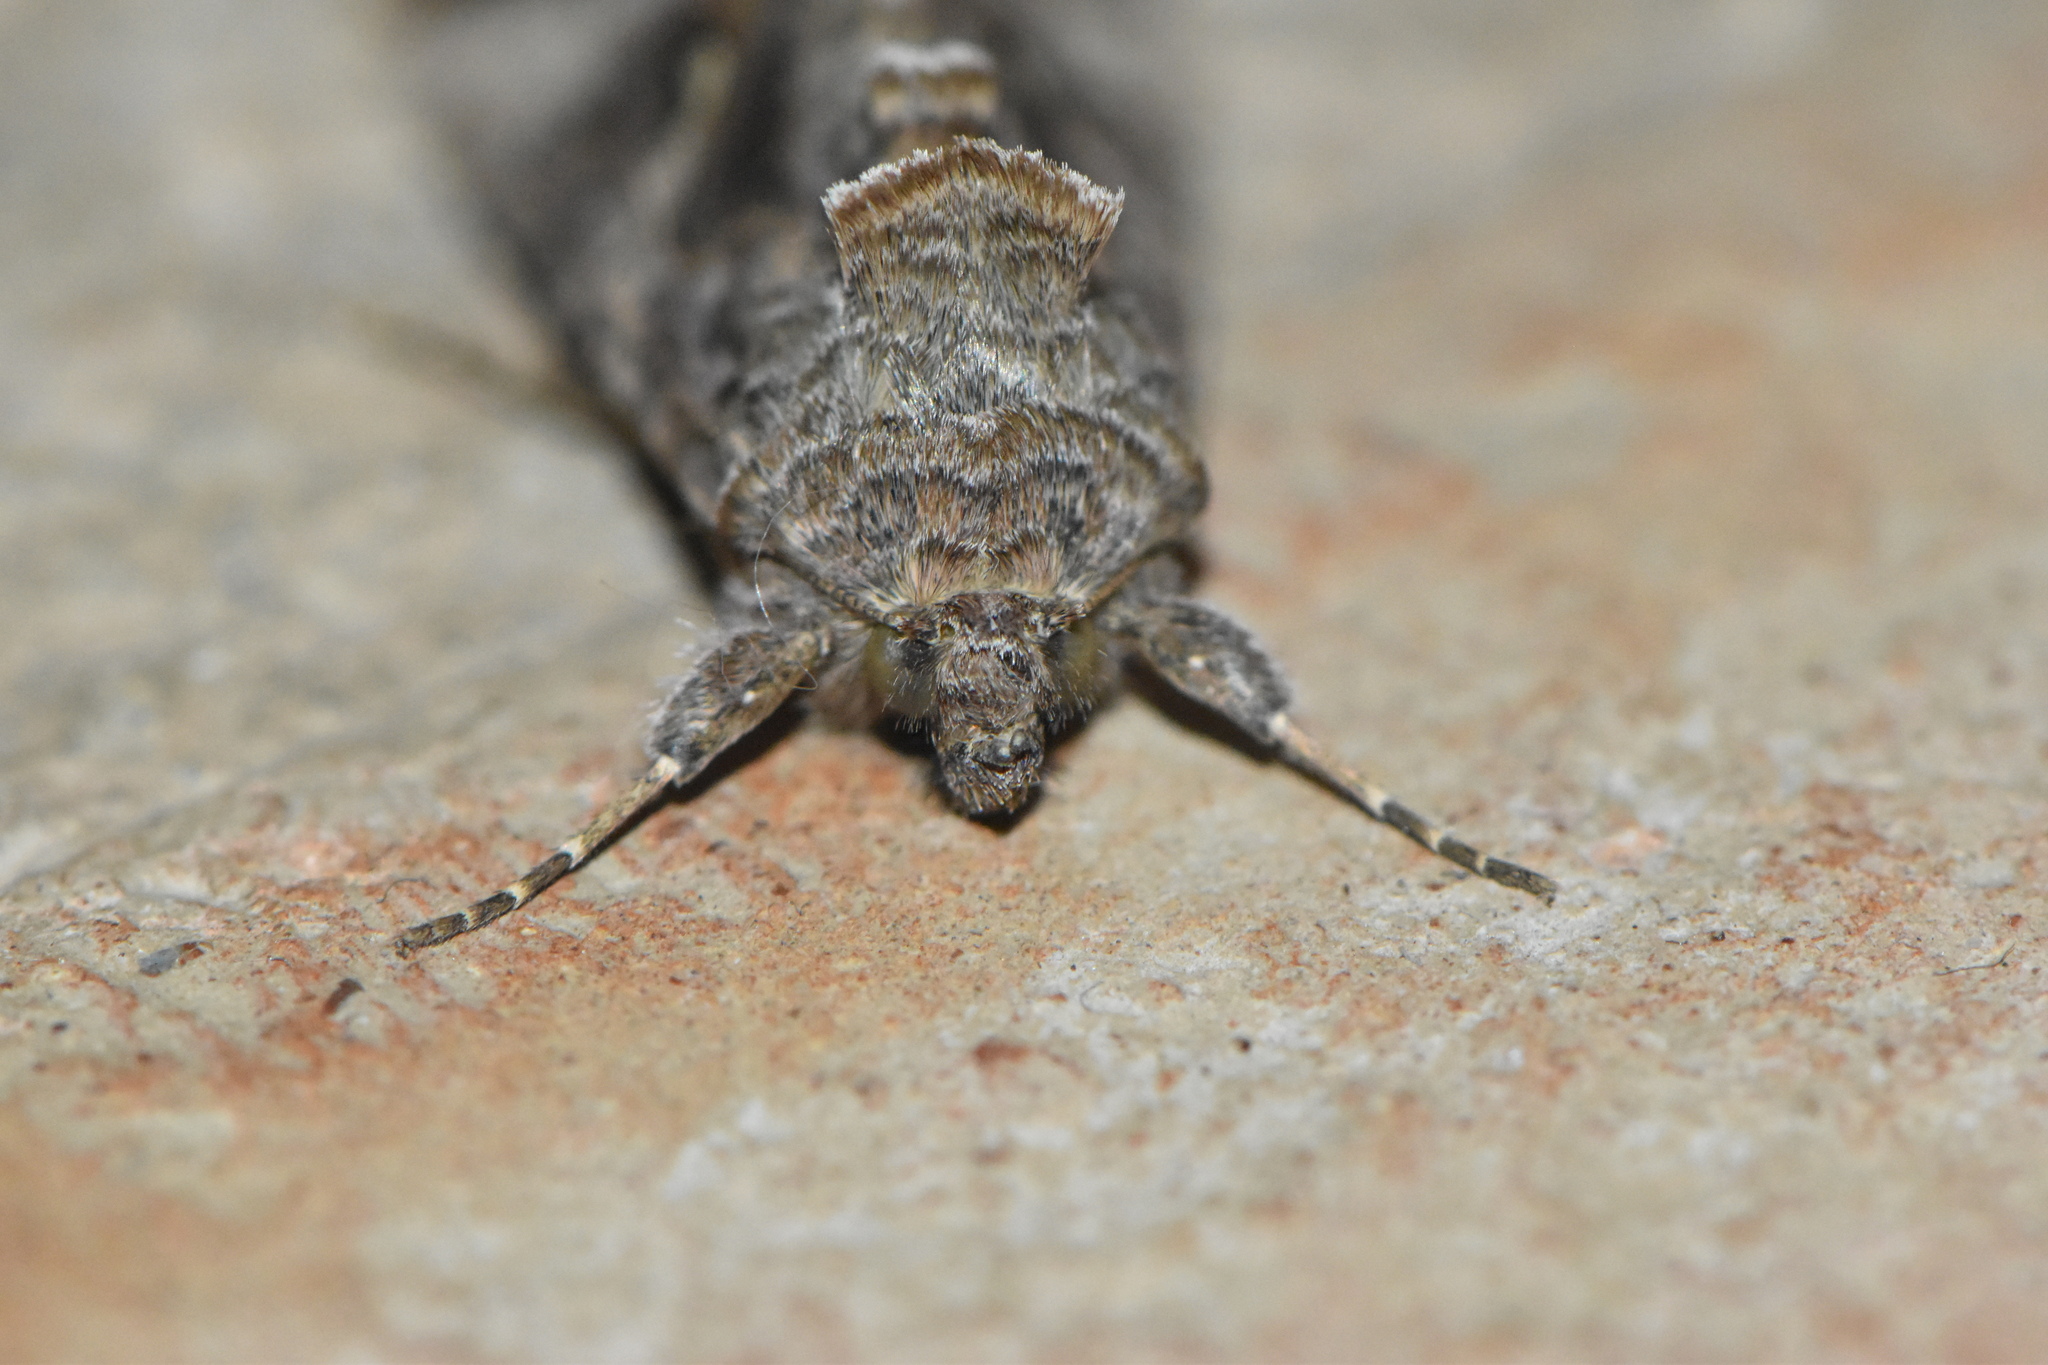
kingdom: Animalia
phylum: Arthropoda
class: Insecta
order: Lepidoptera
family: Noctuidae
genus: Autographa
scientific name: Autographa gamma
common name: Silver y
